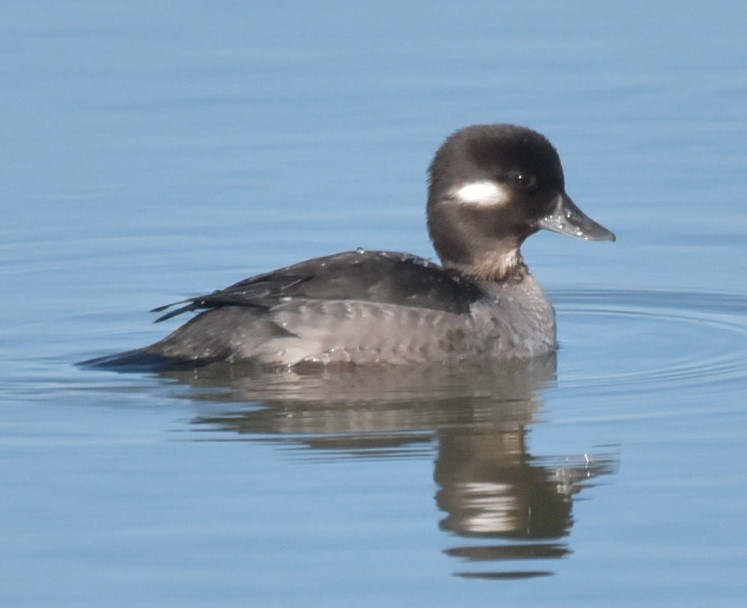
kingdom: Animalia
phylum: Chordata
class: Aves
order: Anseriformes
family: Anatidae
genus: Bucephala
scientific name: Bucephala albeola
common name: Bufflehead
